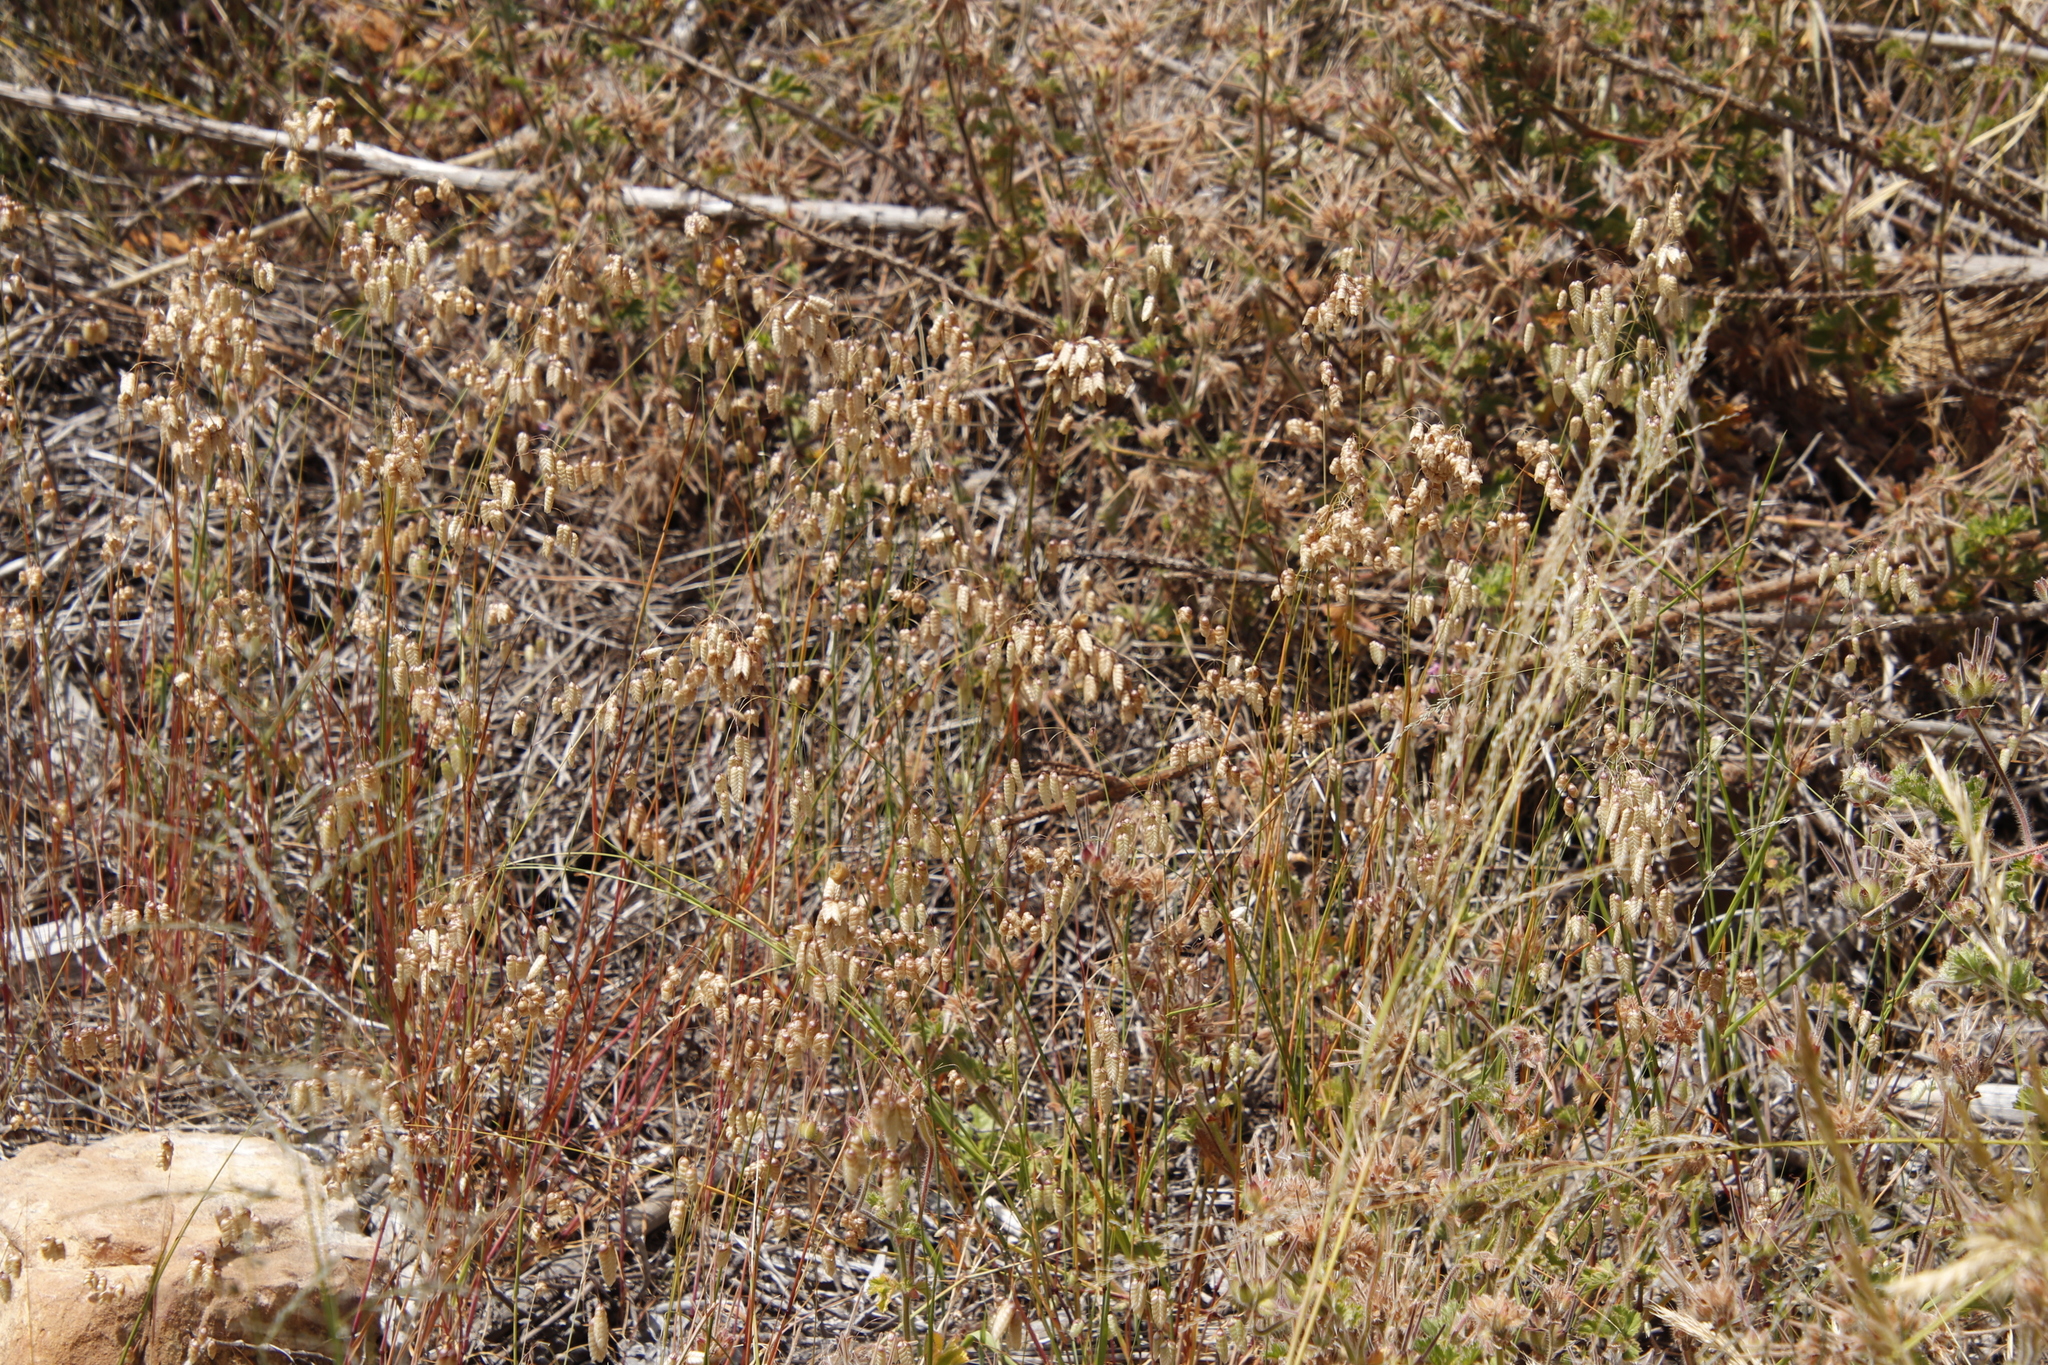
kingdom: Plantae
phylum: Tracheophyta
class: Liliopsida
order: Poales
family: Poaceae
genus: Briza
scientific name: Briza maxima
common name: Big quakinggrass
